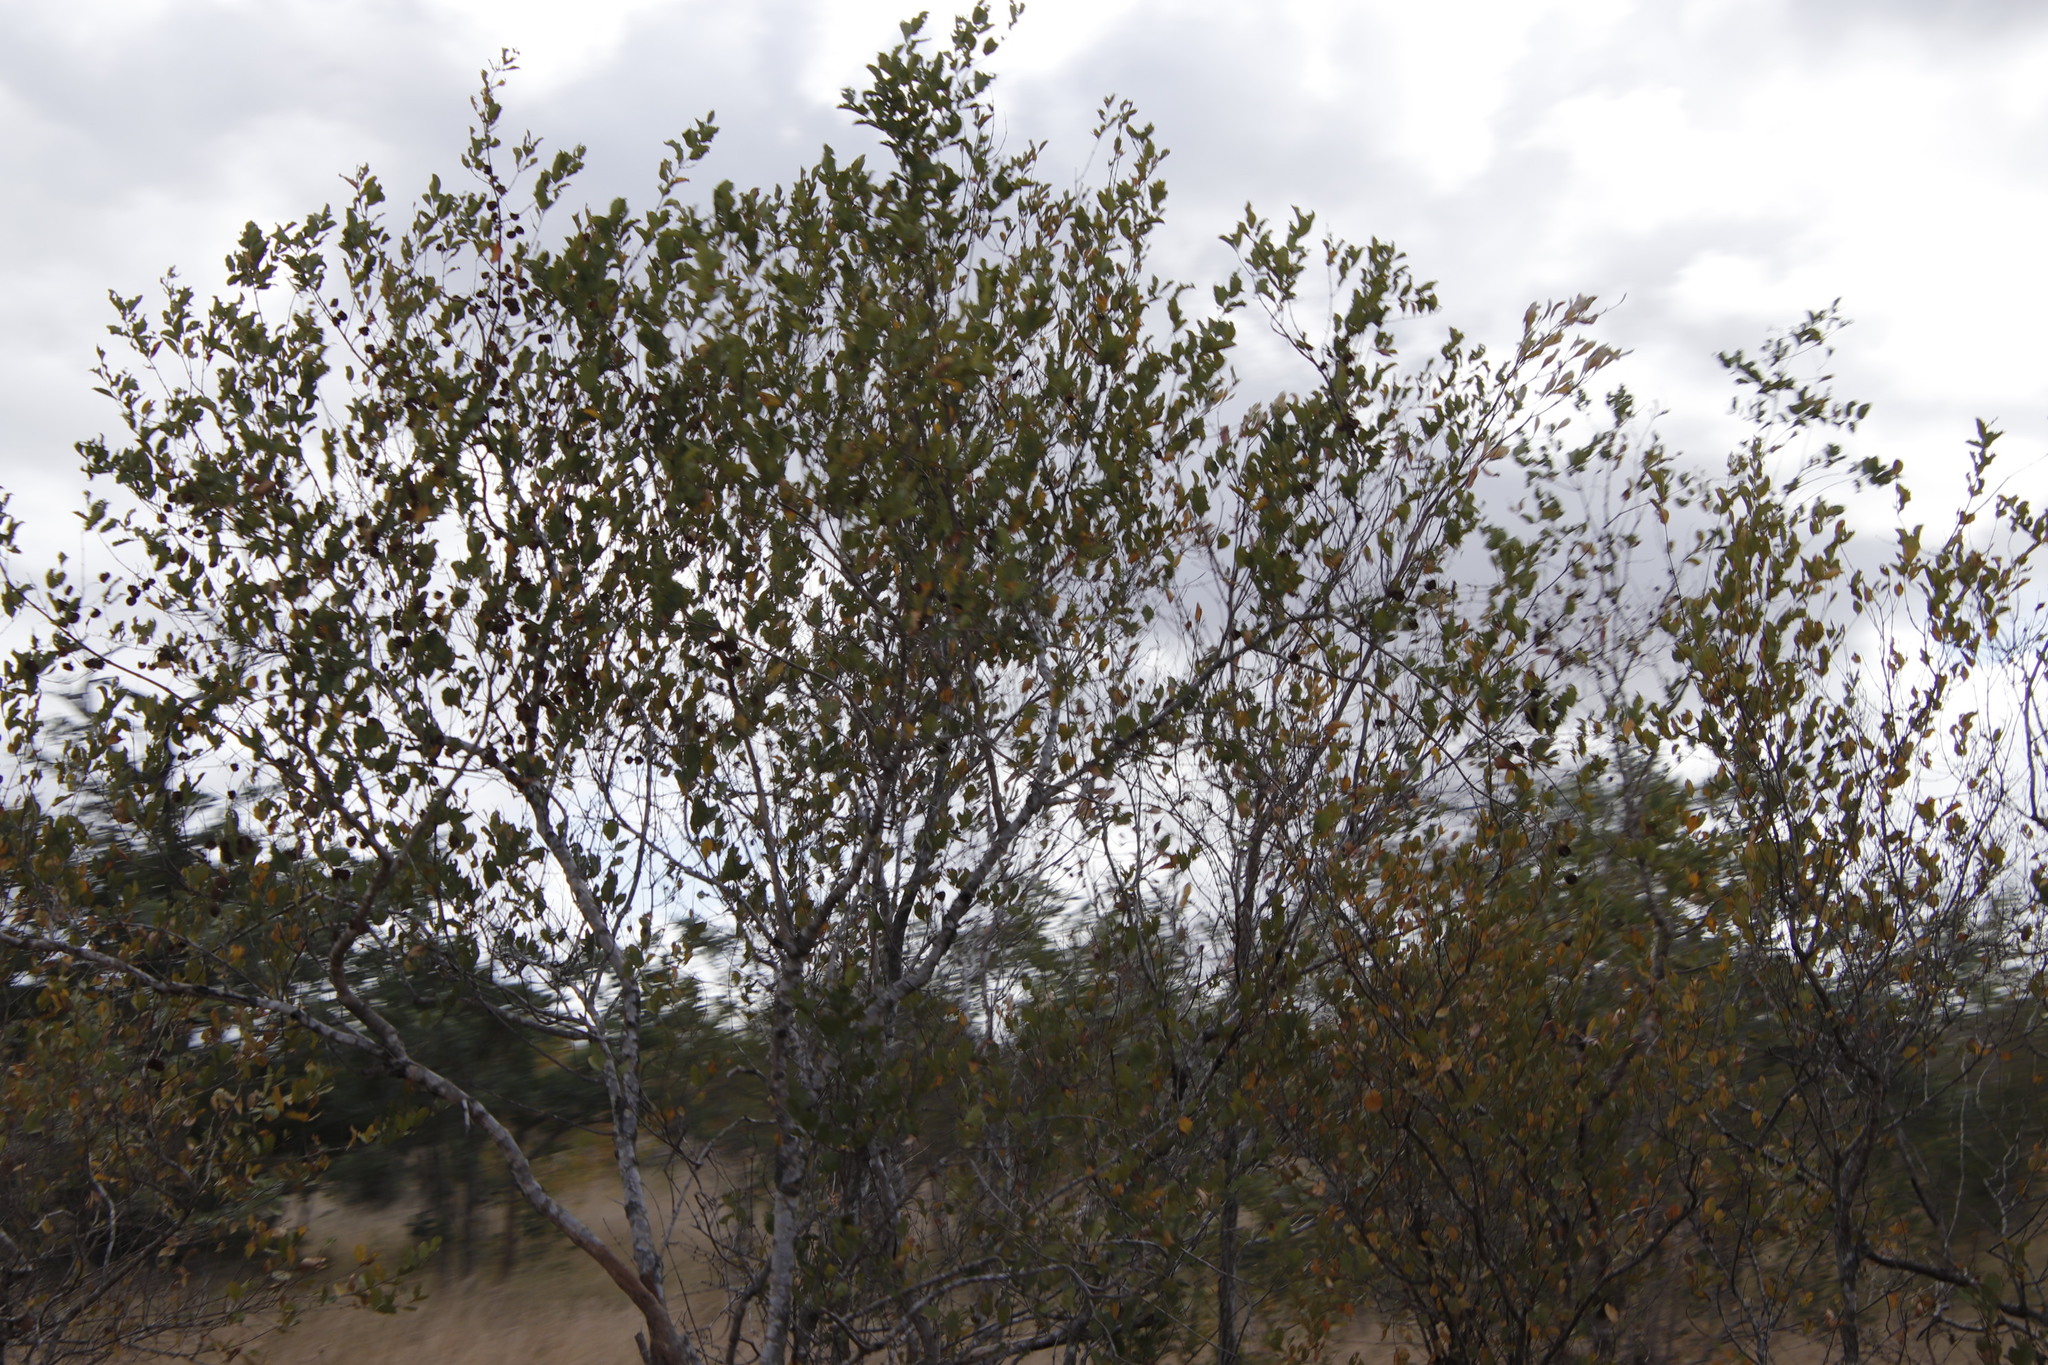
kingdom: Plantae
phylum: Tracheophyta
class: Magnoliopsida
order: Myrtales
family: Combretaceae
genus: Combretum
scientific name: Combretum apiculatum
